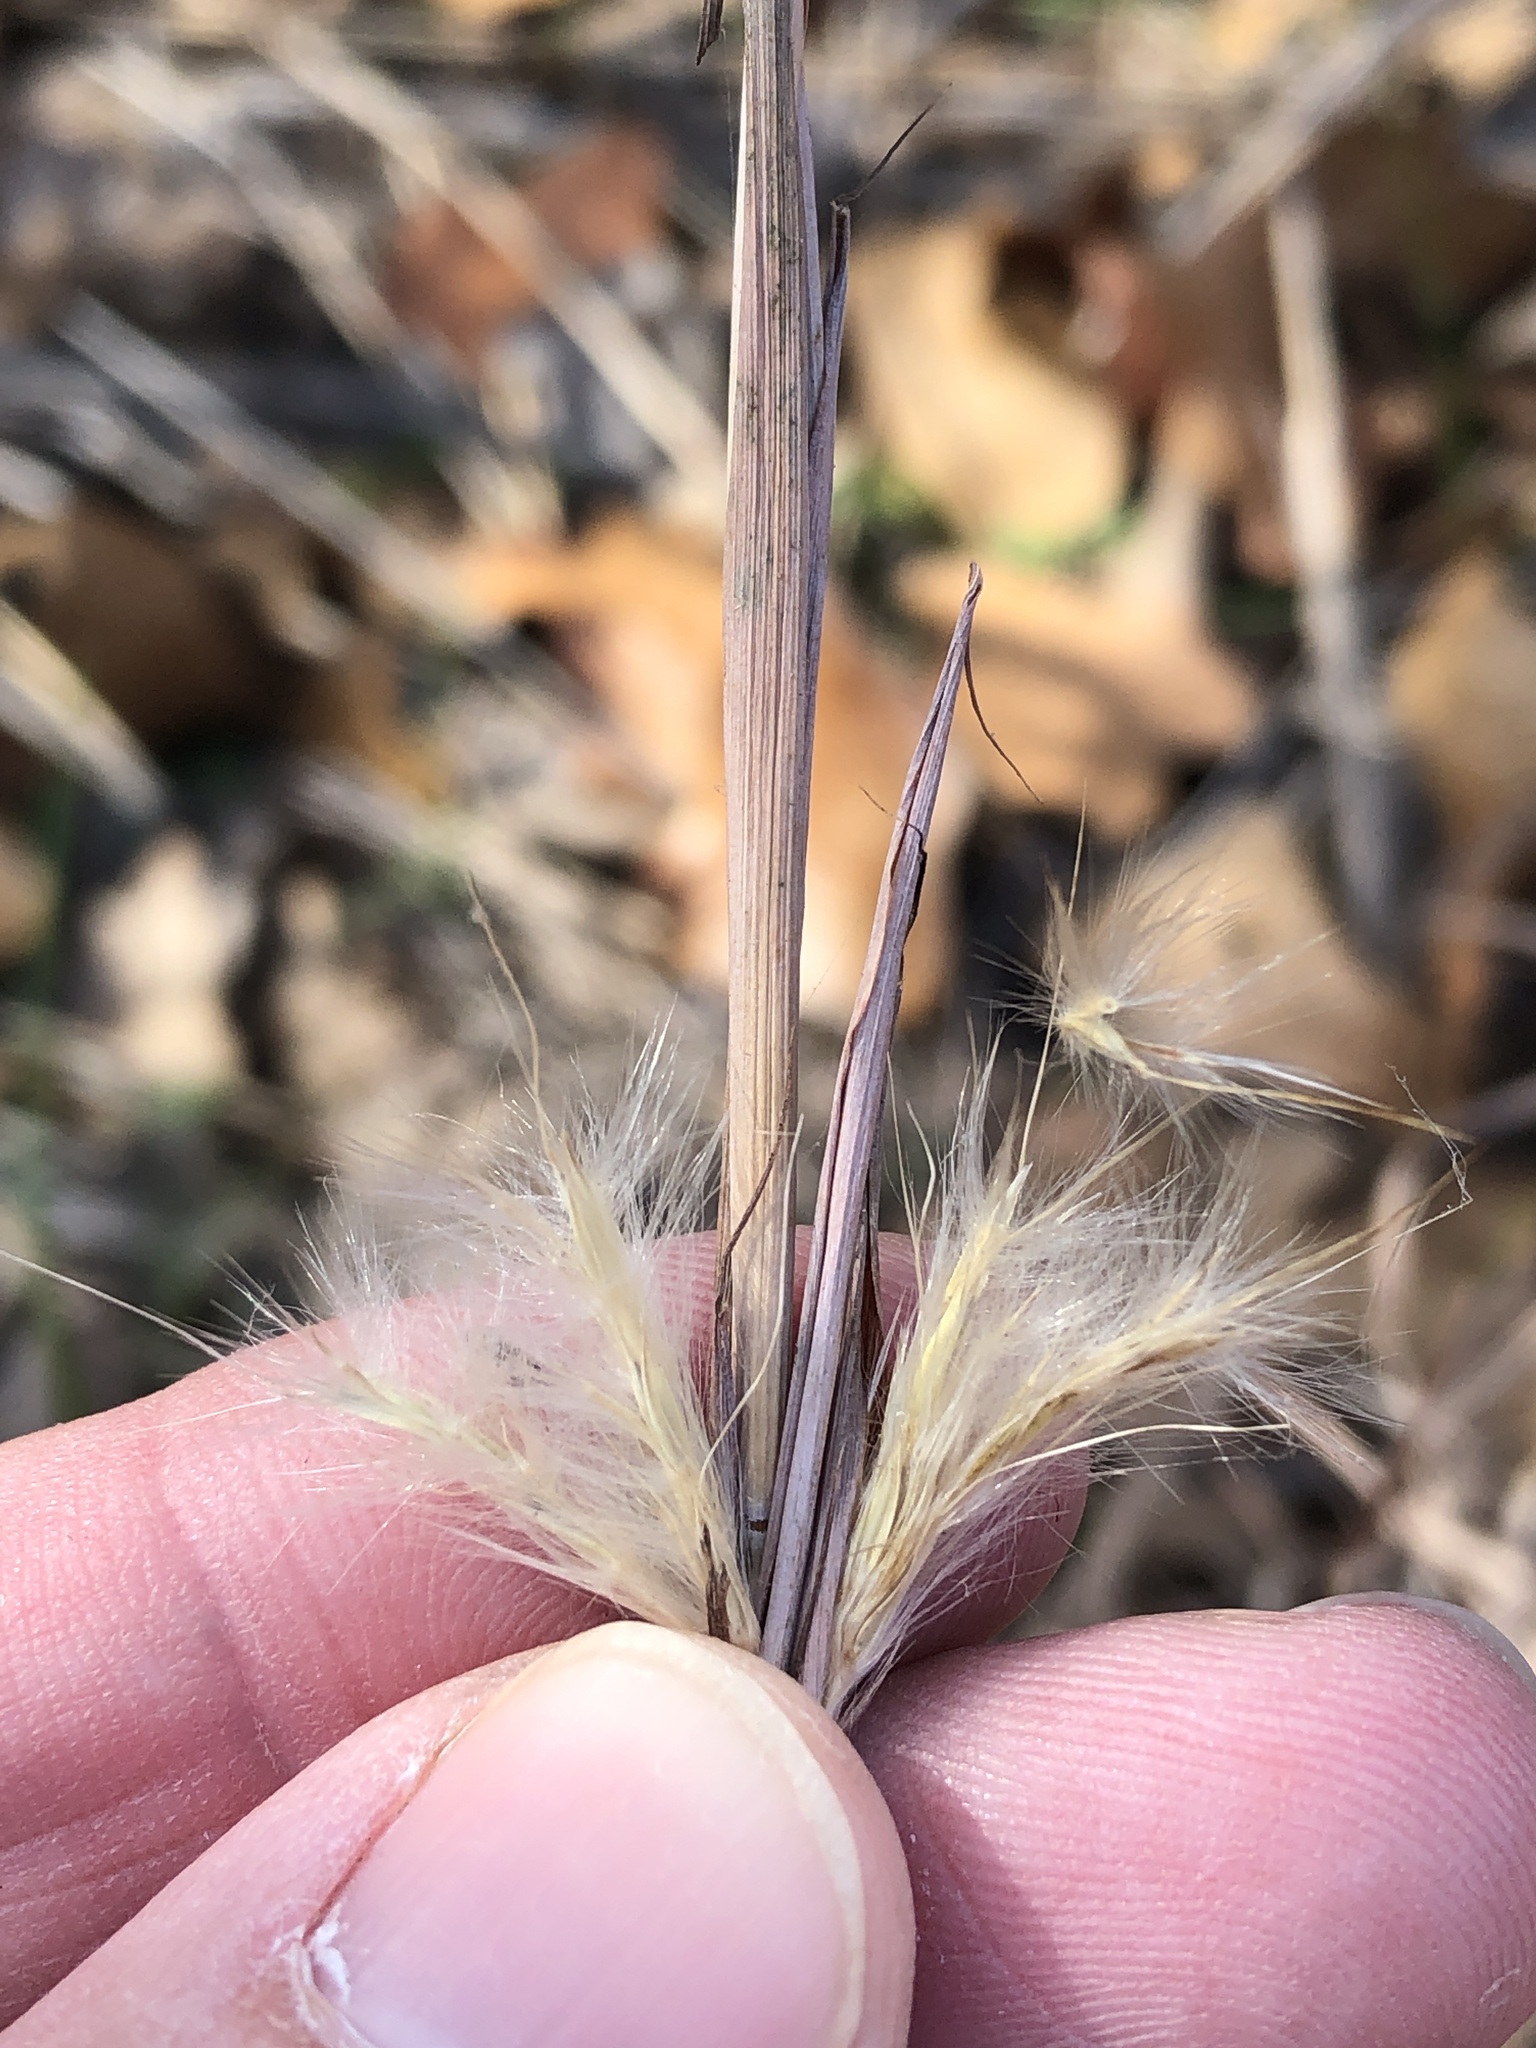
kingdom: Plantae
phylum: Tracheophyta
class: Liliopsida
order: Poales
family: Poaceae
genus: Andropogon
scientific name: Andropogon ternarius
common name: Split bluestem
